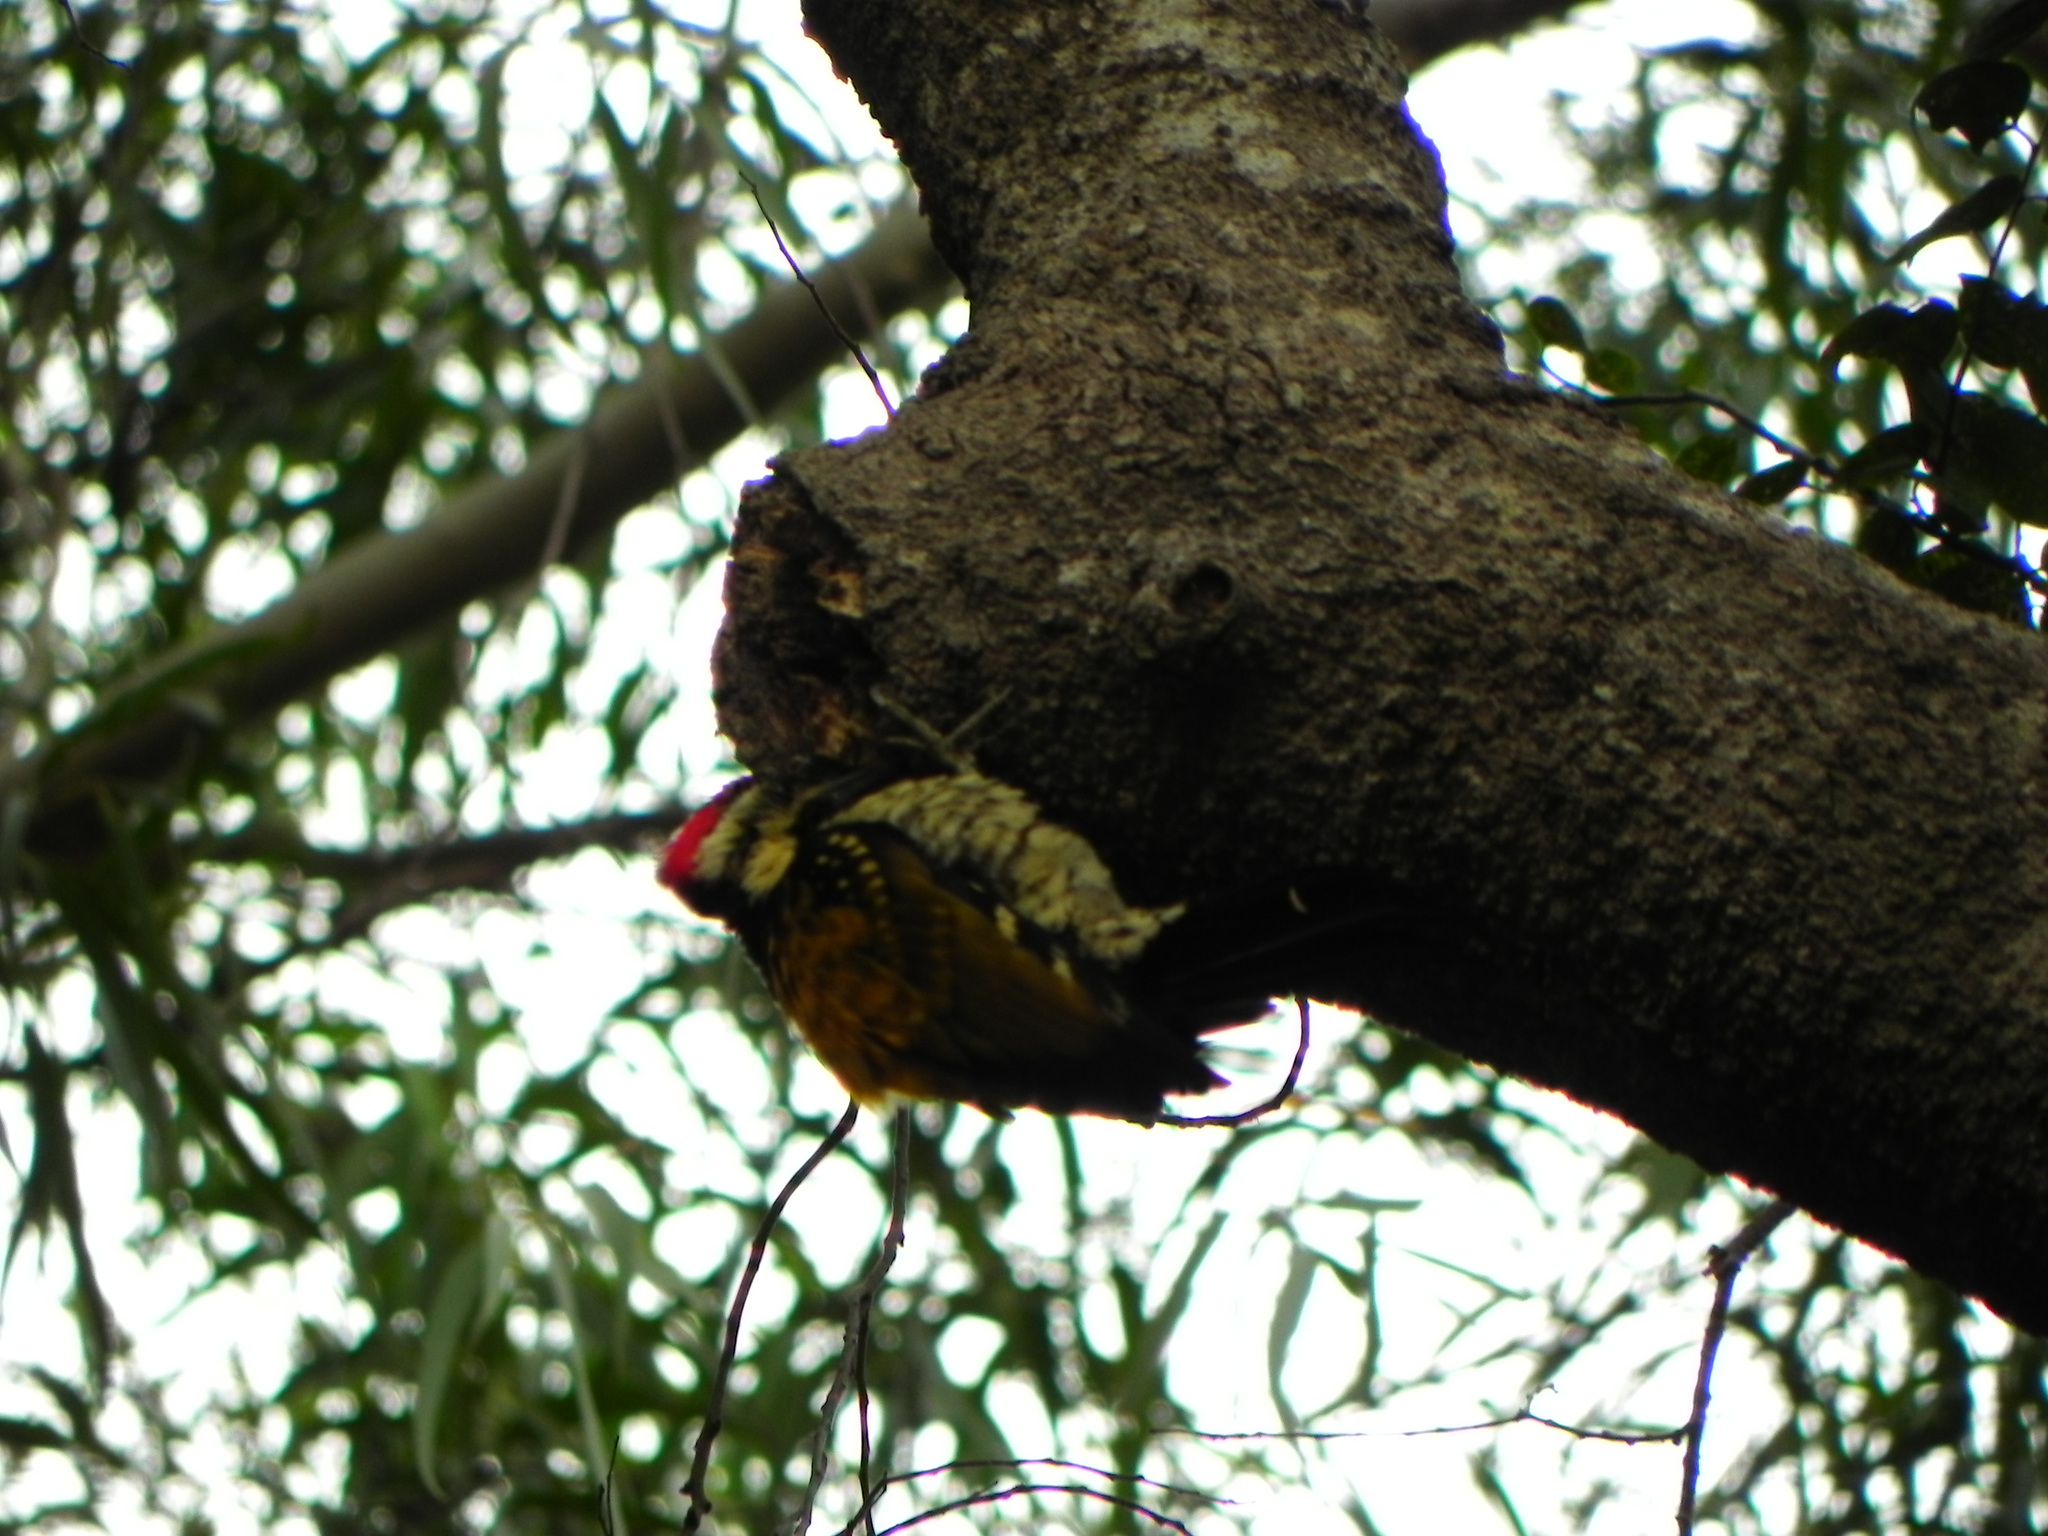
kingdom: Animalia
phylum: Chordata
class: Aves
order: Piciformes
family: Picidae
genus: Dinopium
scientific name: Dinopium benghalense
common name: Black-rumped flameback
